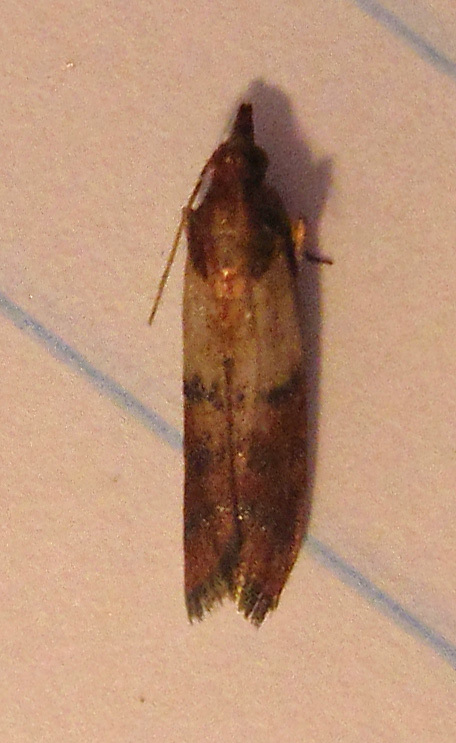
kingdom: Animalia
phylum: Arthropoda
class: Insecta
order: Lepidoptera
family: Pyralidae
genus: Plodia
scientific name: Plodia interpunctella
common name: Indian meal moth
